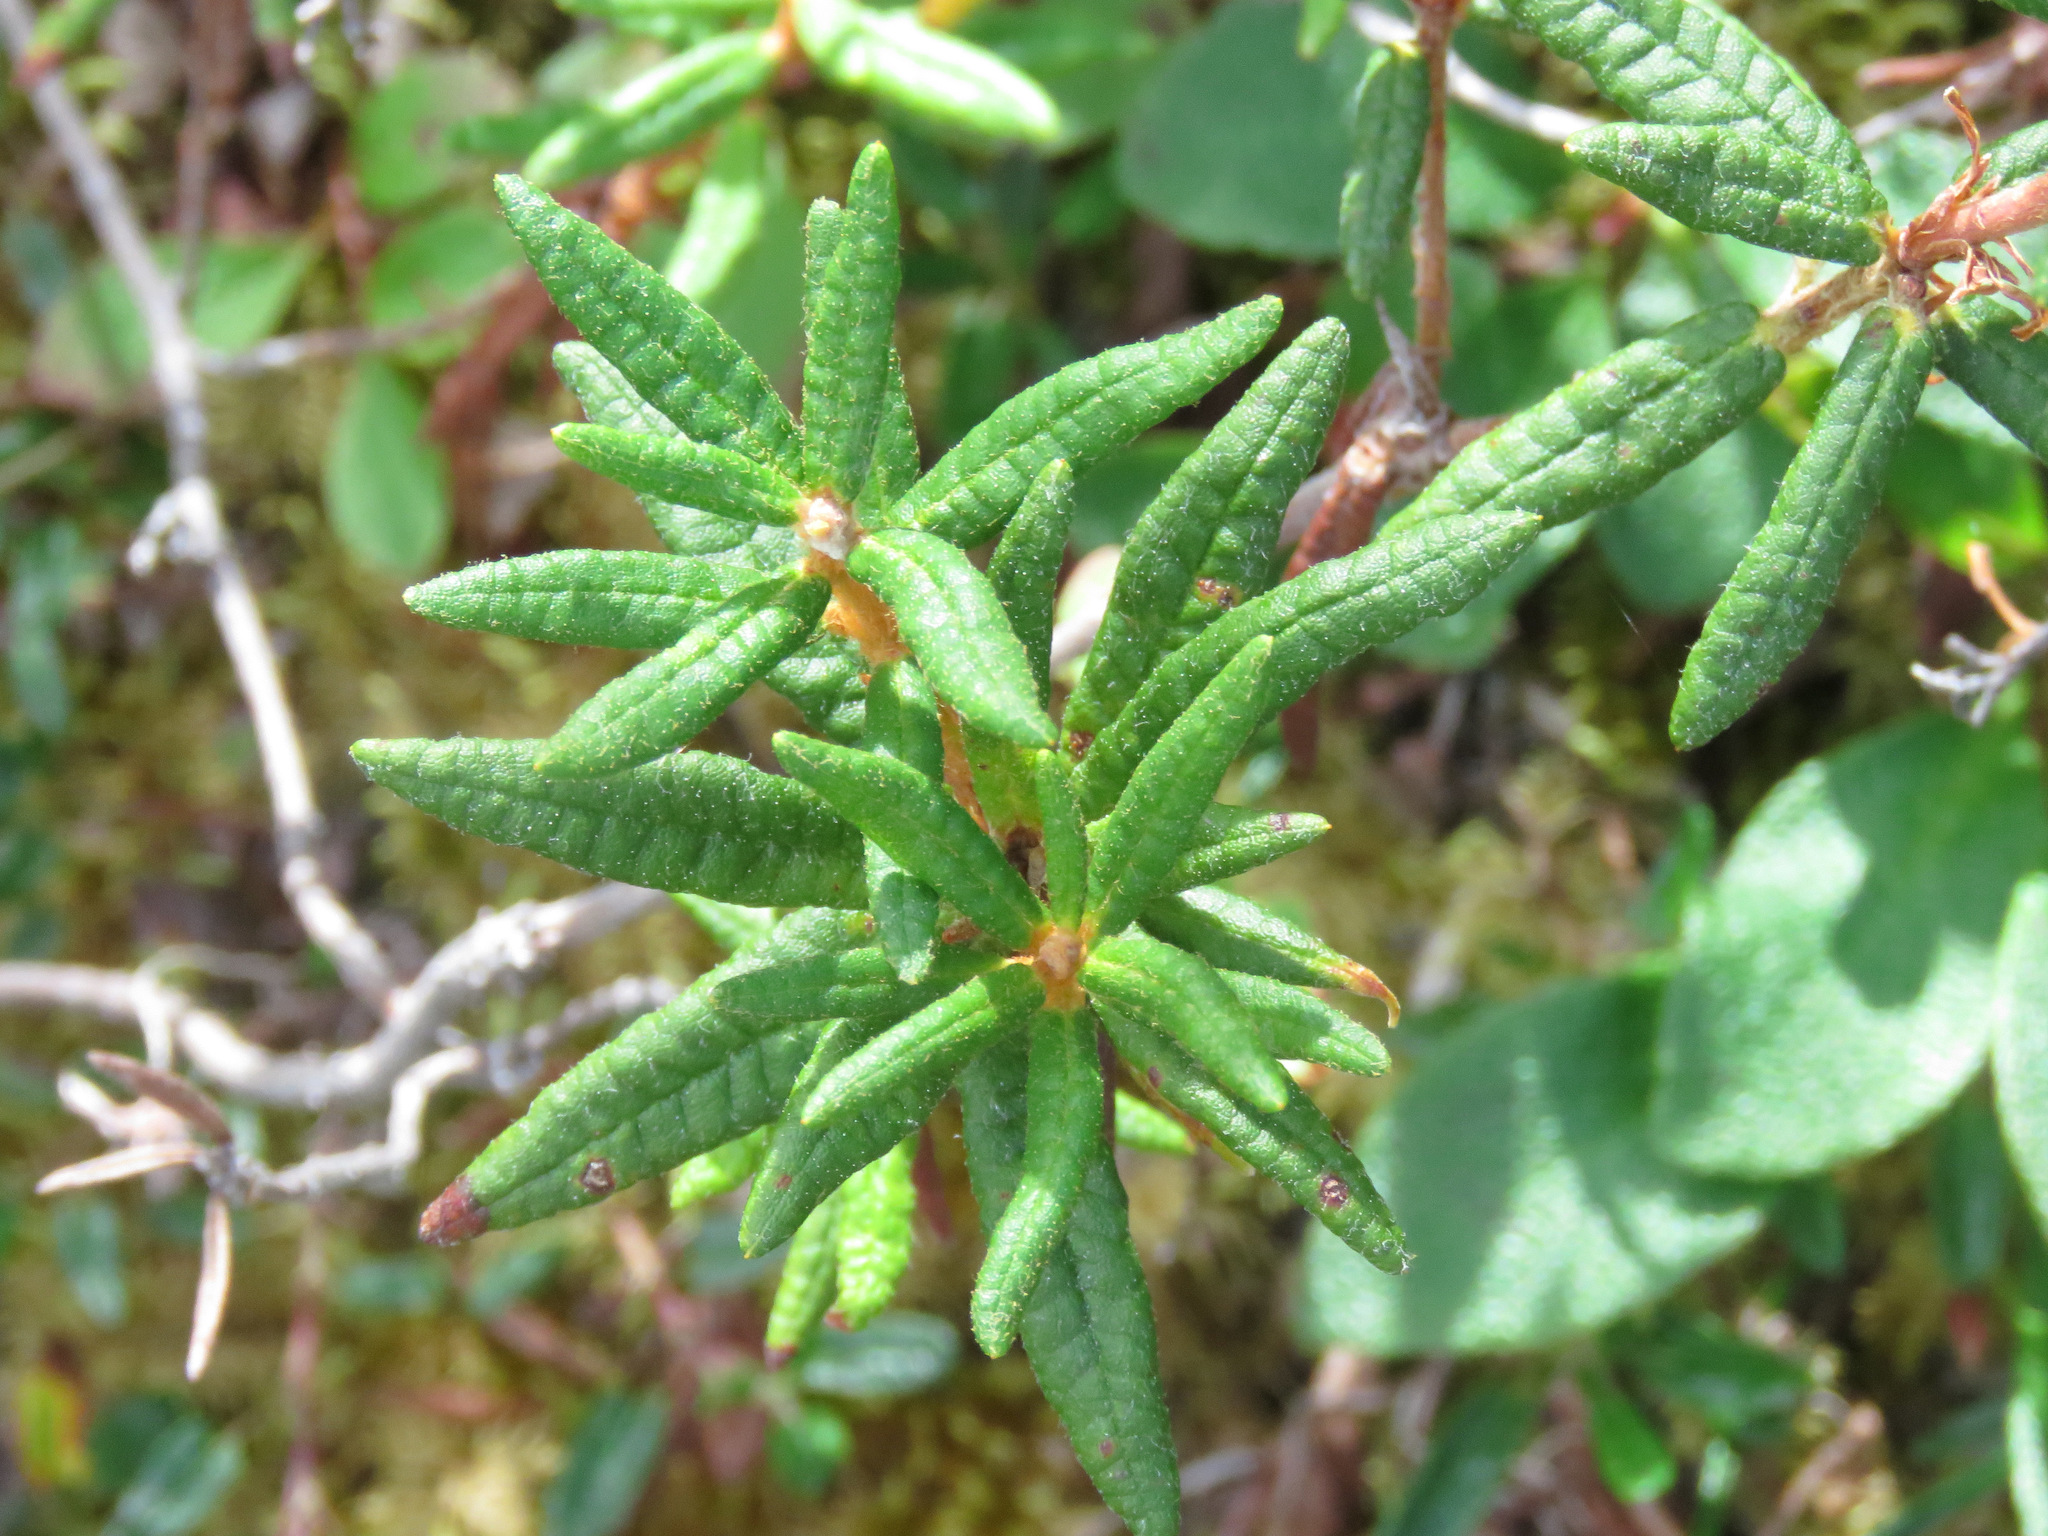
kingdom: Plantae
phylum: Tracheophyta
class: Magnoliopsida
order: Ericales
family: Ericaceae
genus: Rhododendron
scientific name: Rhododendron groenlandicum
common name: Bog labrador tea
